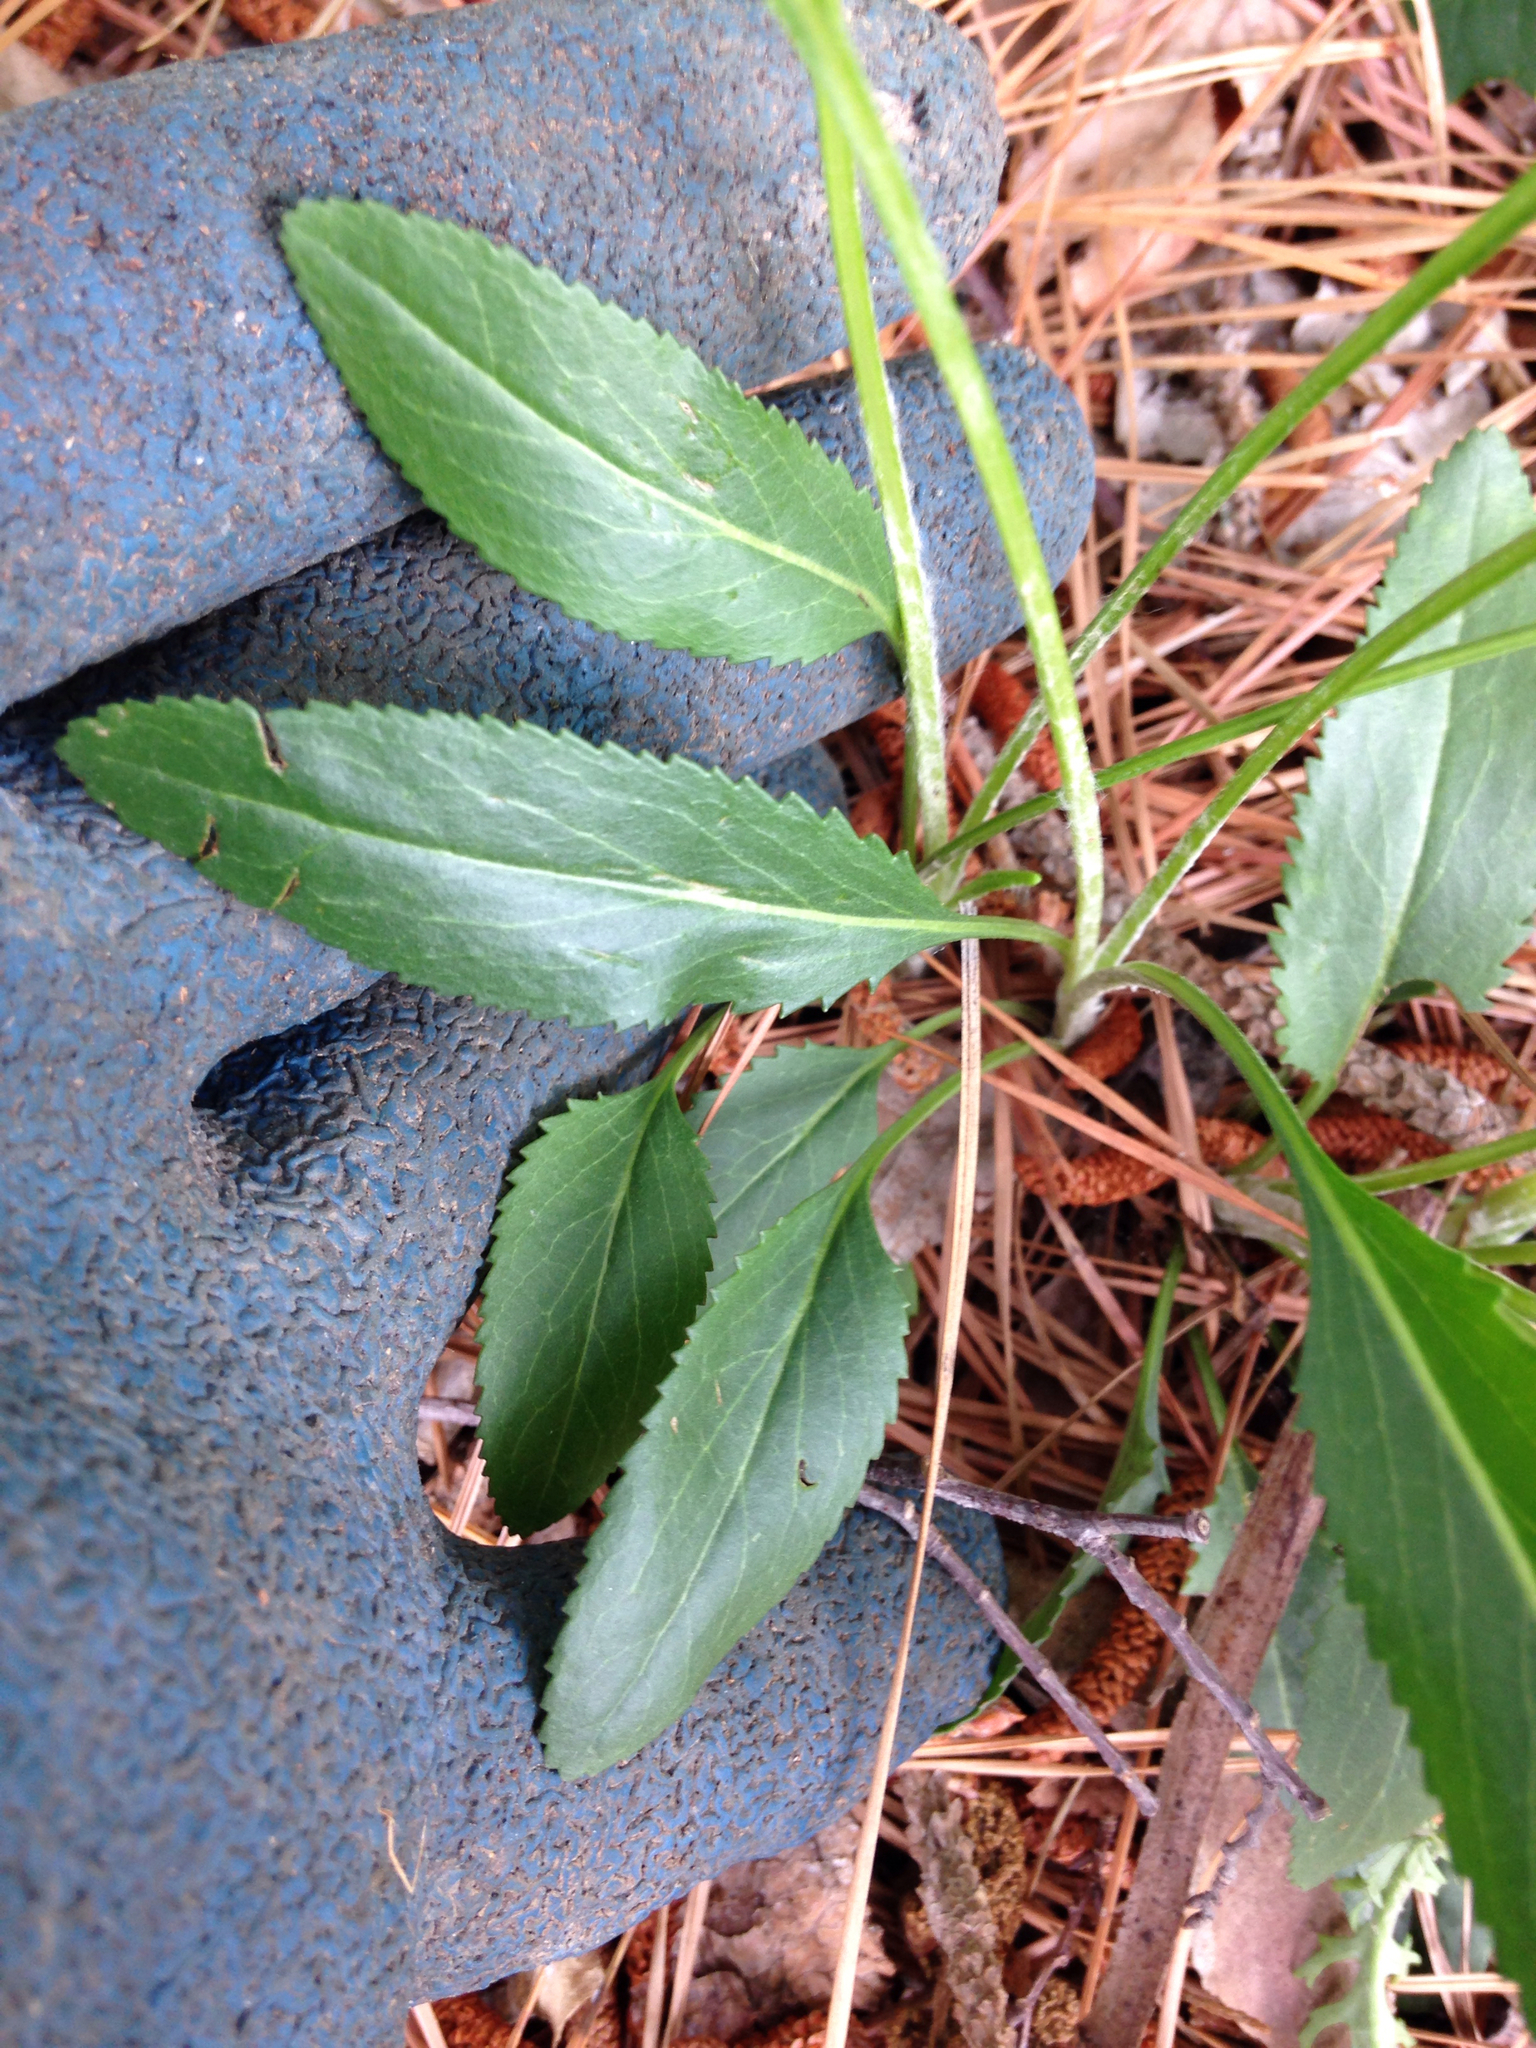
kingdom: Plantae
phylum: Tracheophyta
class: Magnoliopsida
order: Asterales
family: Asteraceae
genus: Packera
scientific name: Packera anonyma
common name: Small ragwort
